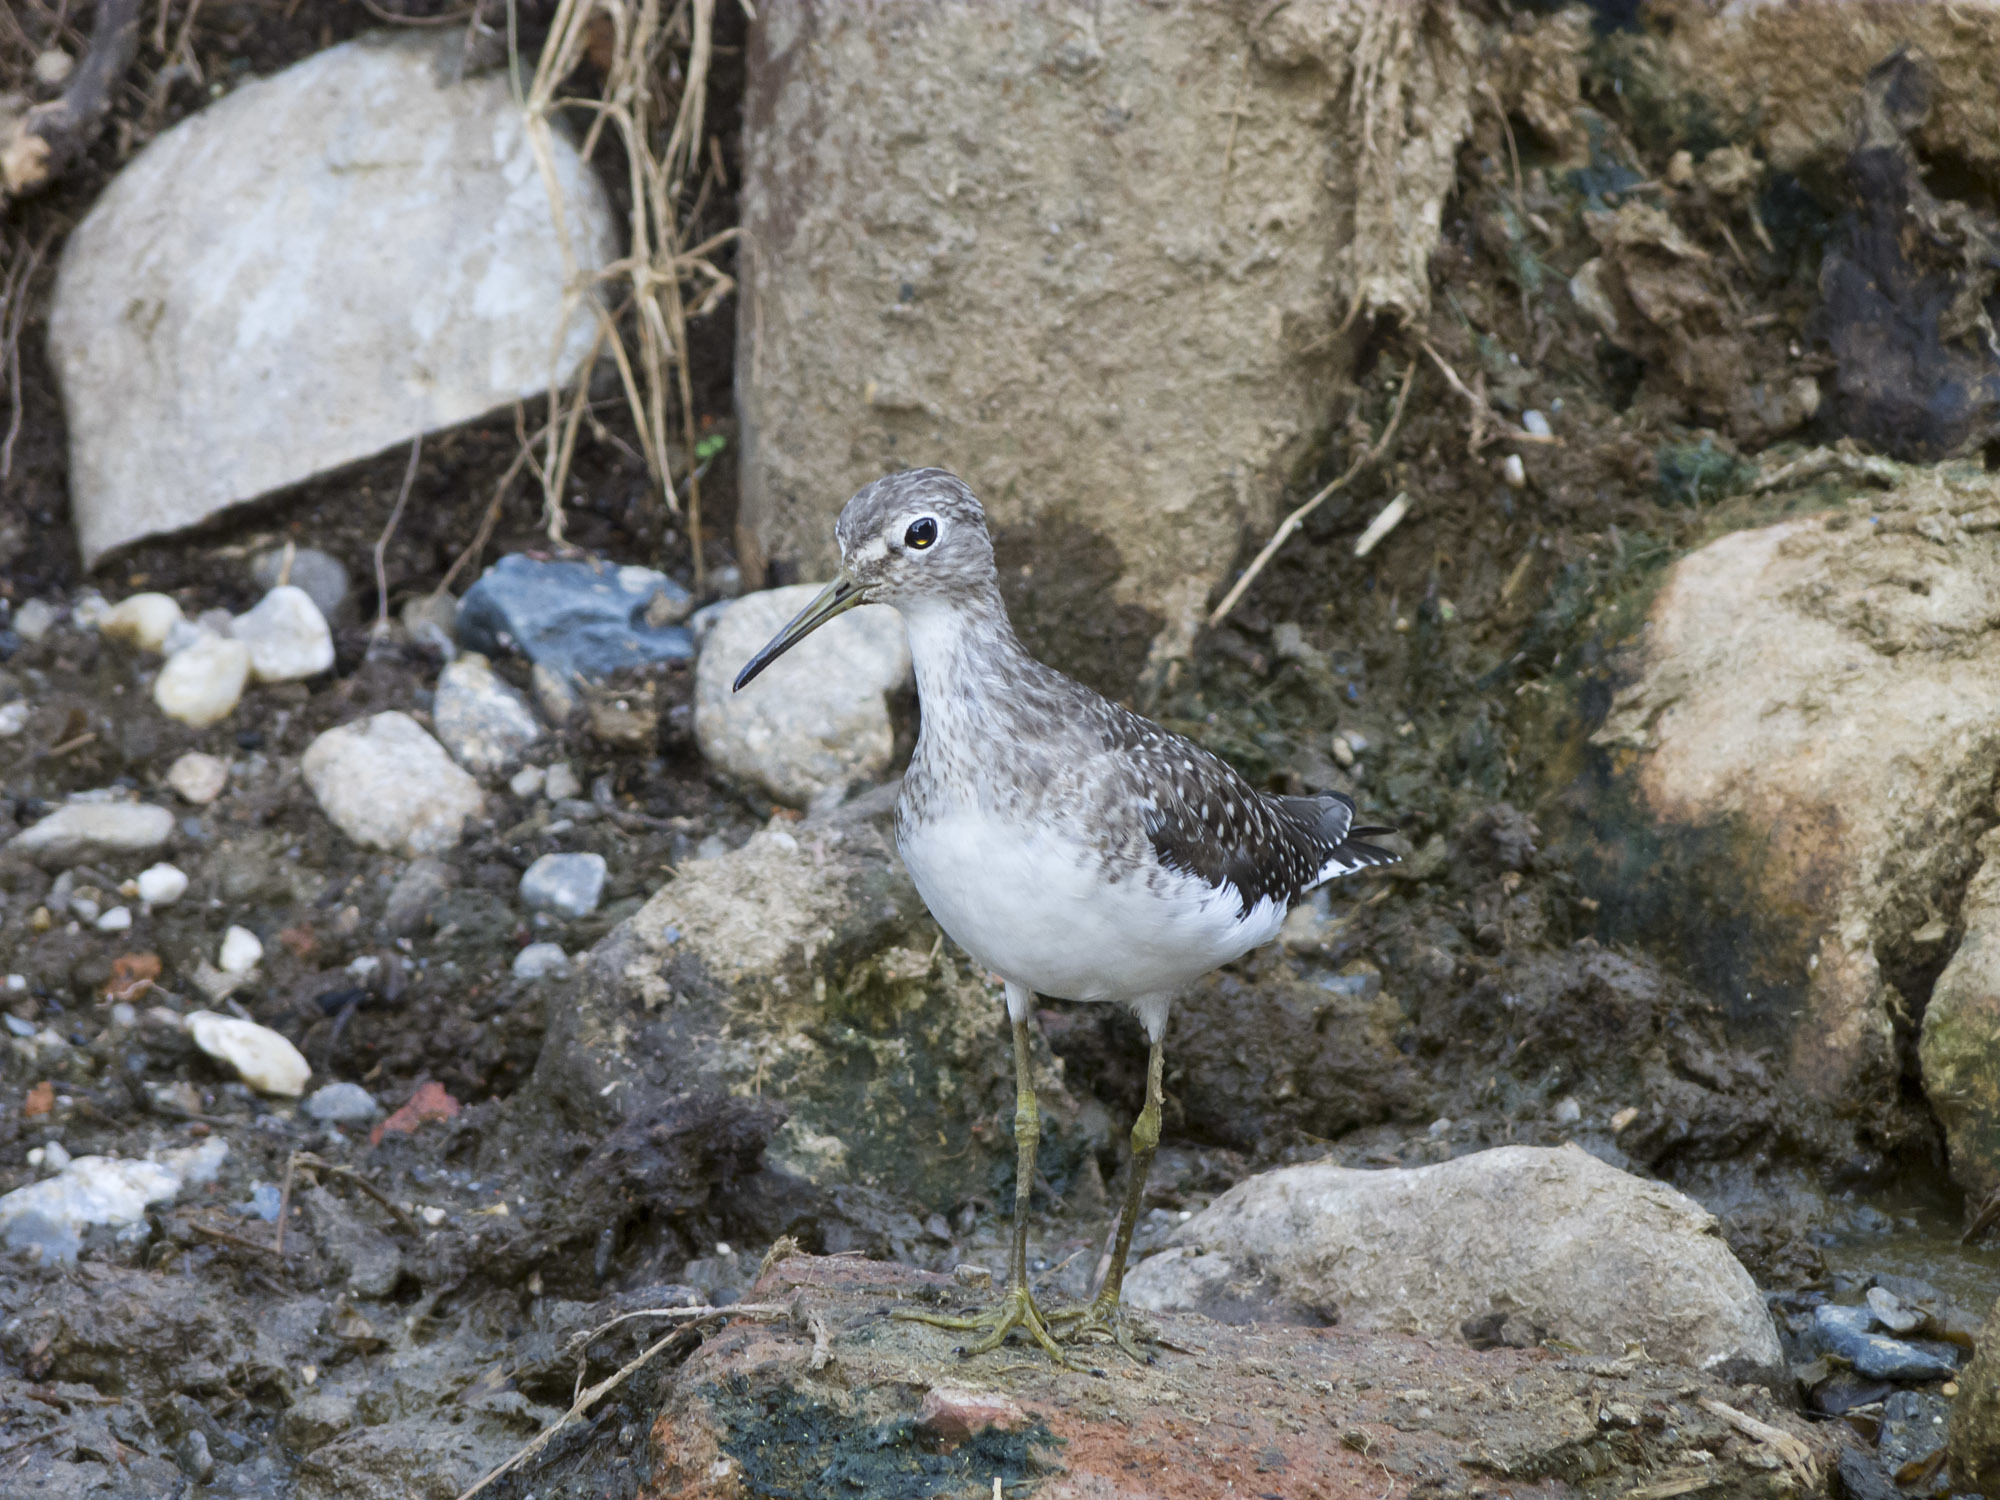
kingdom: Animalia
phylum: Chordata
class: Aves
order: Charadriiformes
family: Scolopacidae
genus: Tringa
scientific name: Tringa solitaria
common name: Solitary sandpiper
